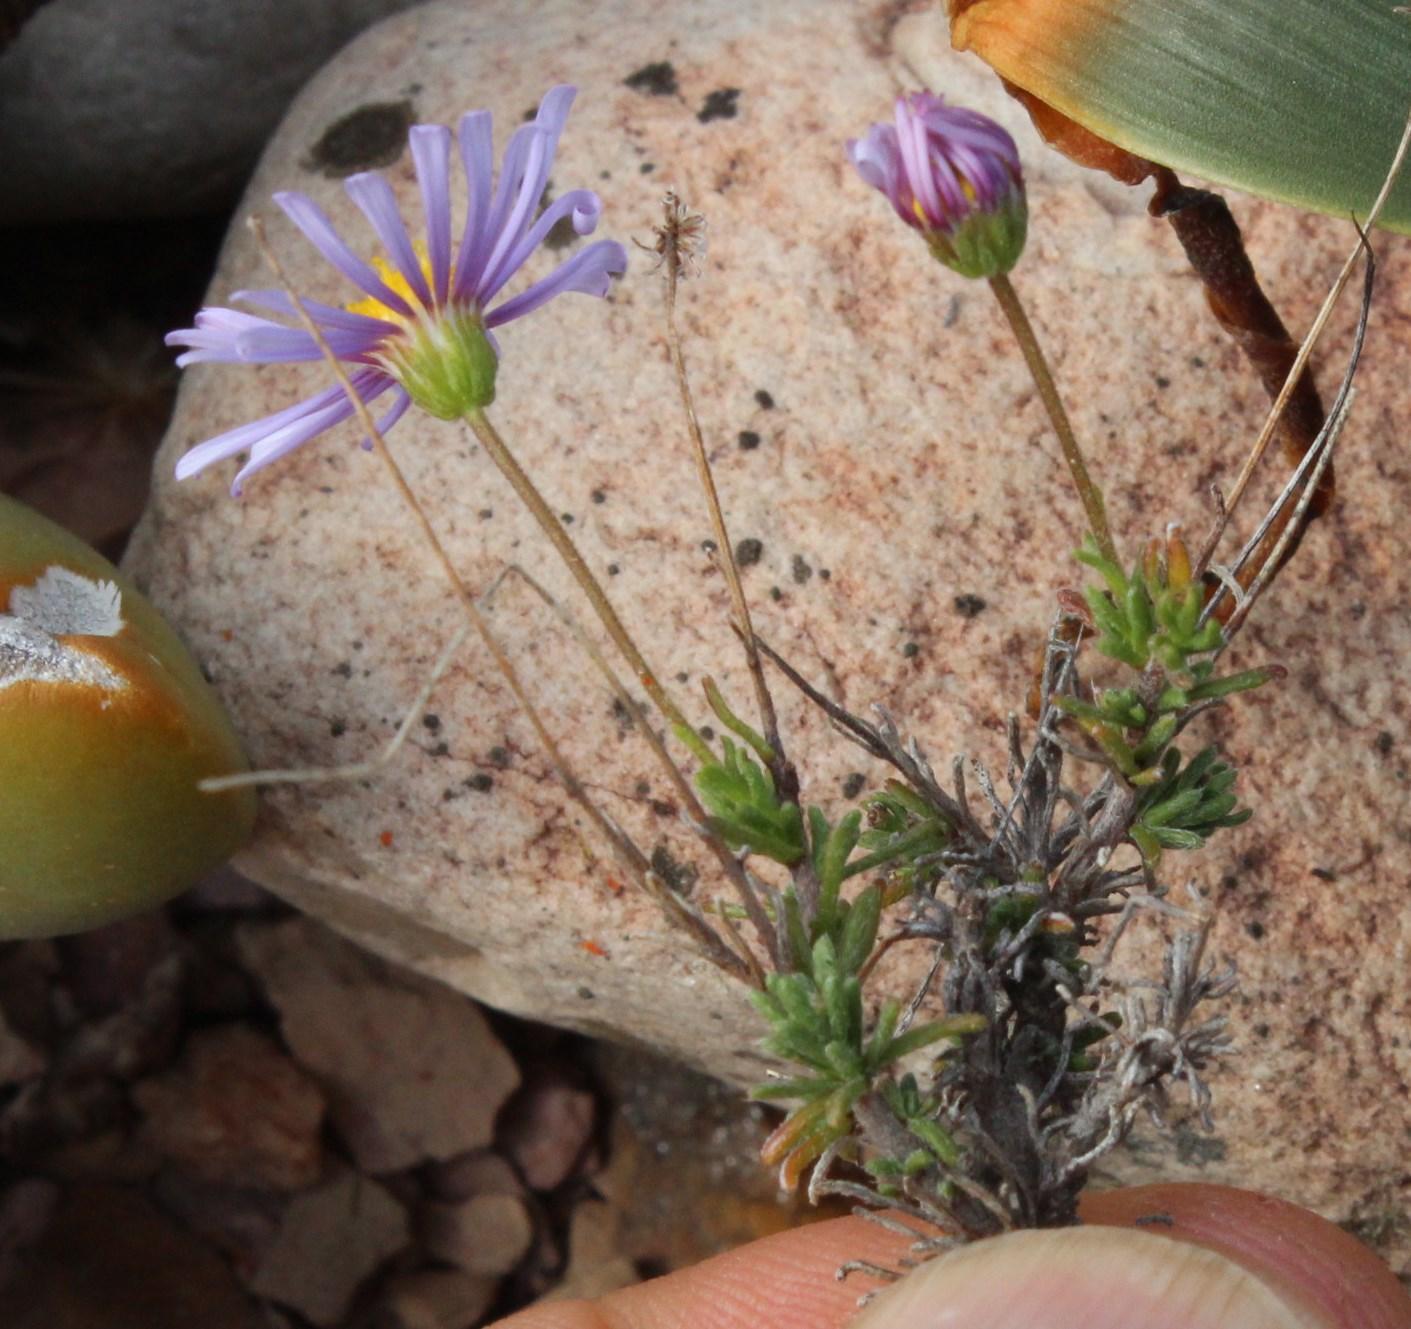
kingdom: Plantae
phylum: Tracheophyta
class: Magnoliopsida
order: Asterales
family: Asteraceae
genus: Felicia
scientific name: Felicia muricata
